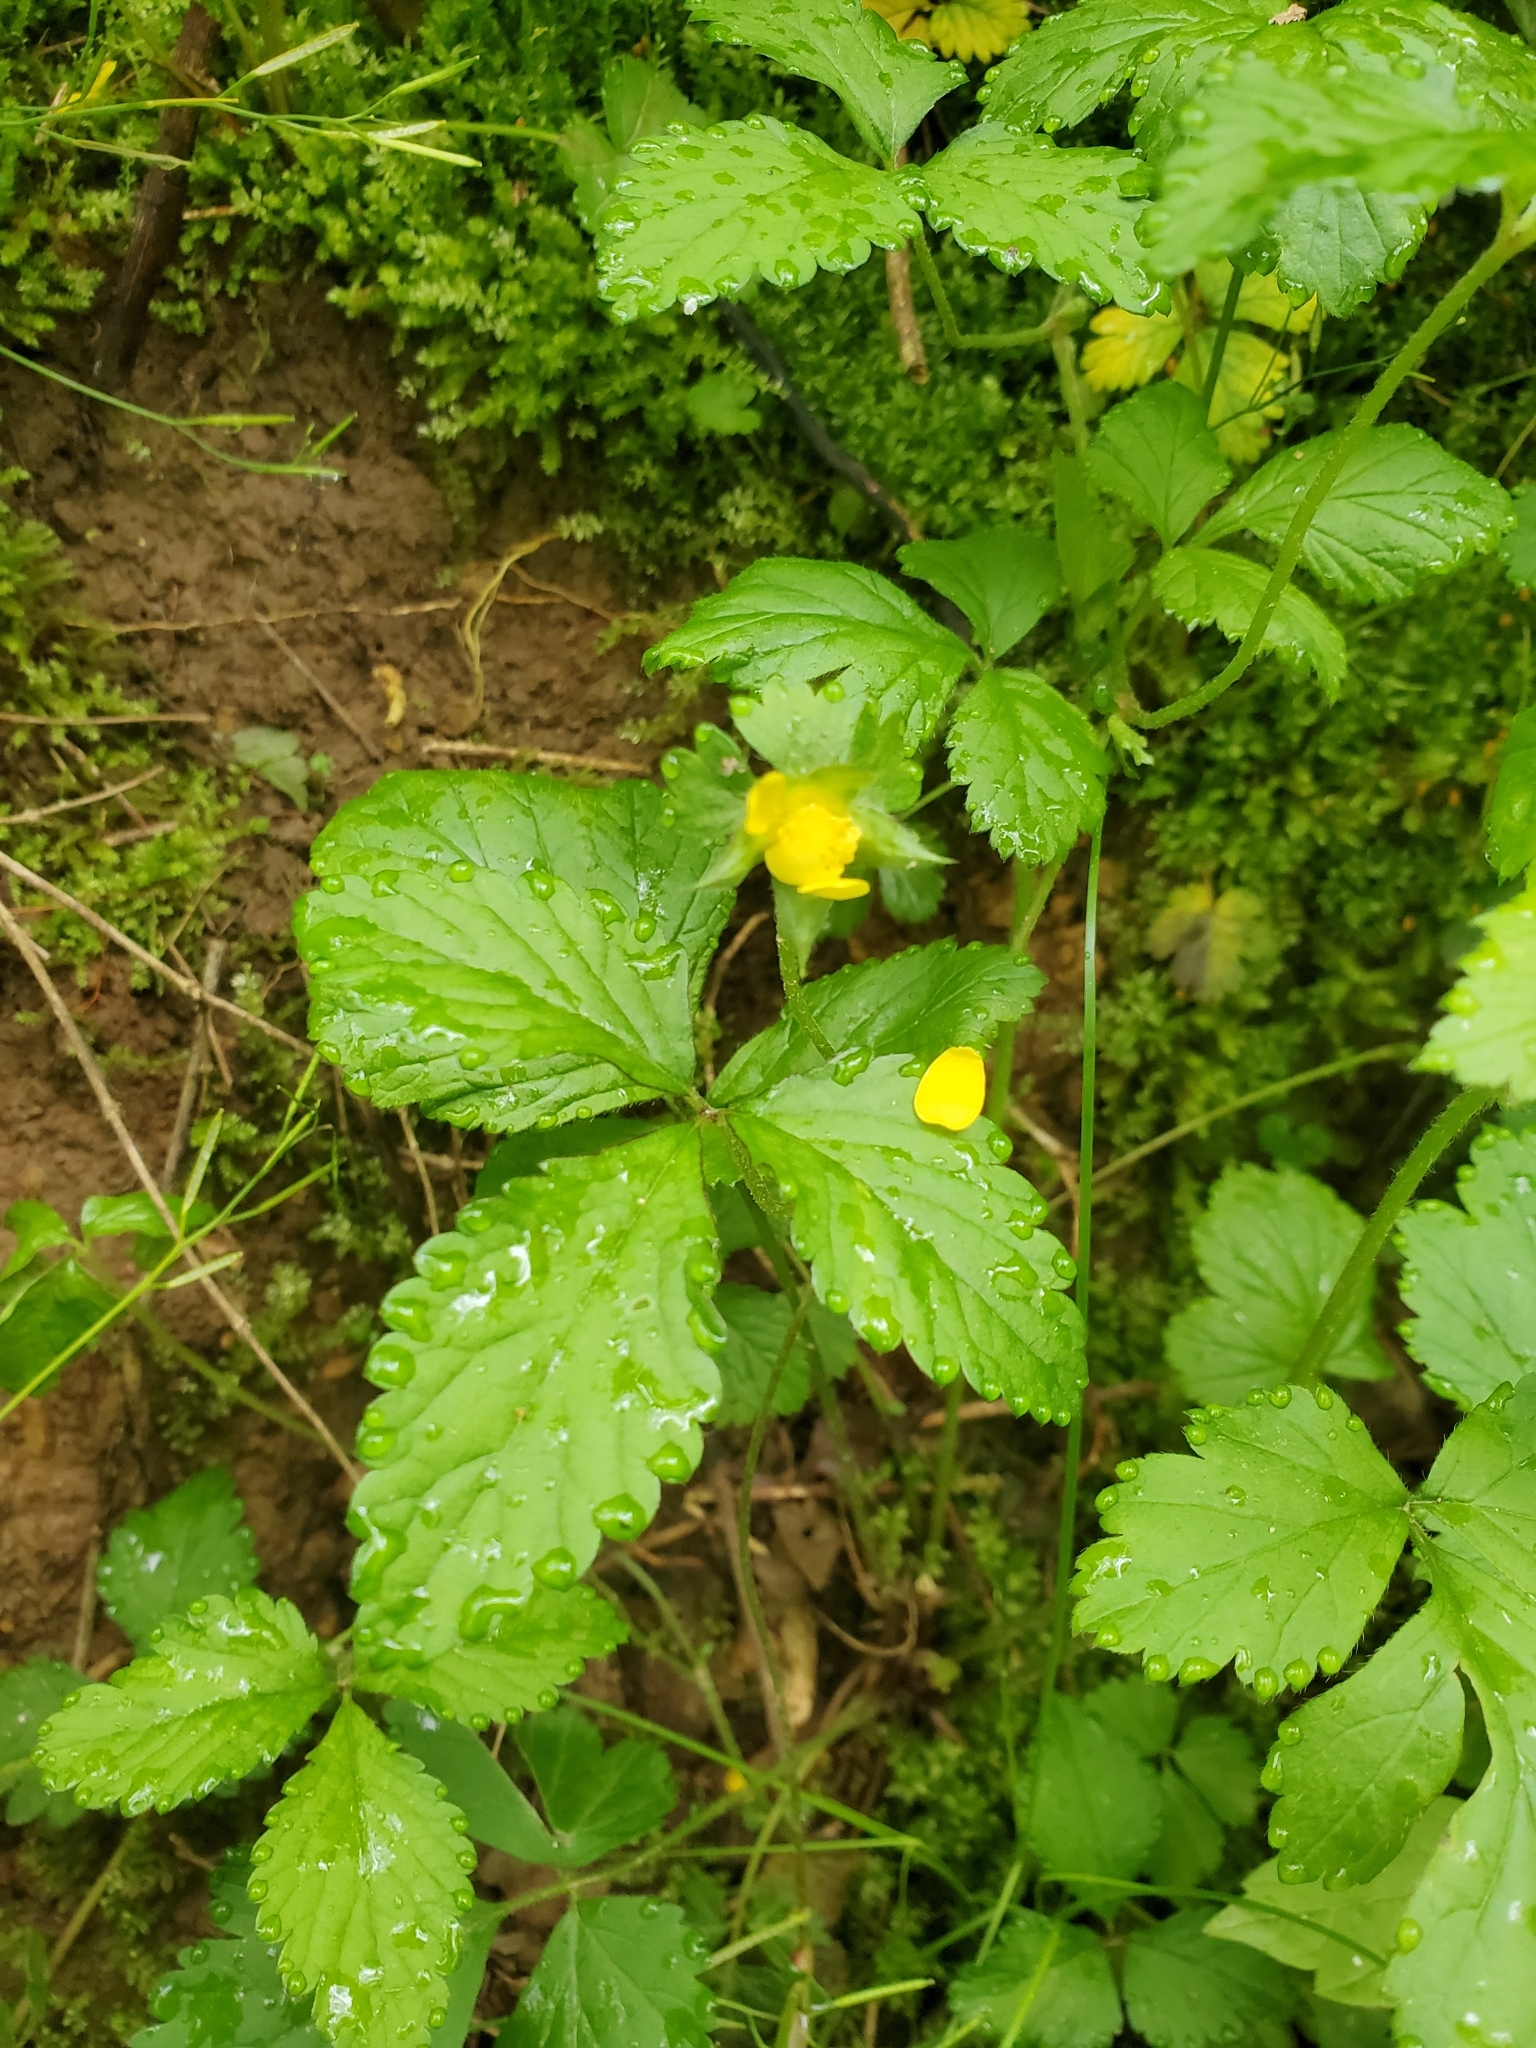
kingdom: Plantae
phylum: Tracheophyta
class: Magnoliopsida
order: Rosales
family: Rosaceae
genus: Potentilla
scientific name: Potentilla indica
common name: Yellow-flowered strawberry
